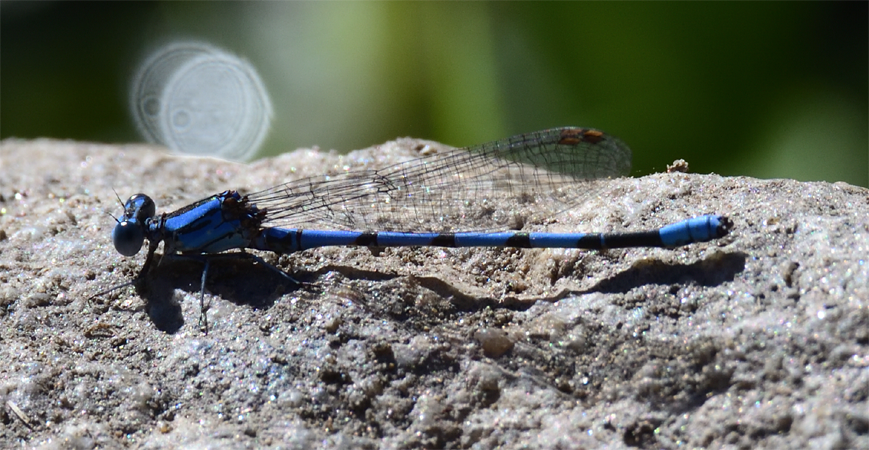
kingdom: Animalia
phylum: Arthropoda
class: Insecta
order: Odonata
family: Coenagrionidae
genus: Argia
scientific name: Argia agrioides
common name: California dancer
